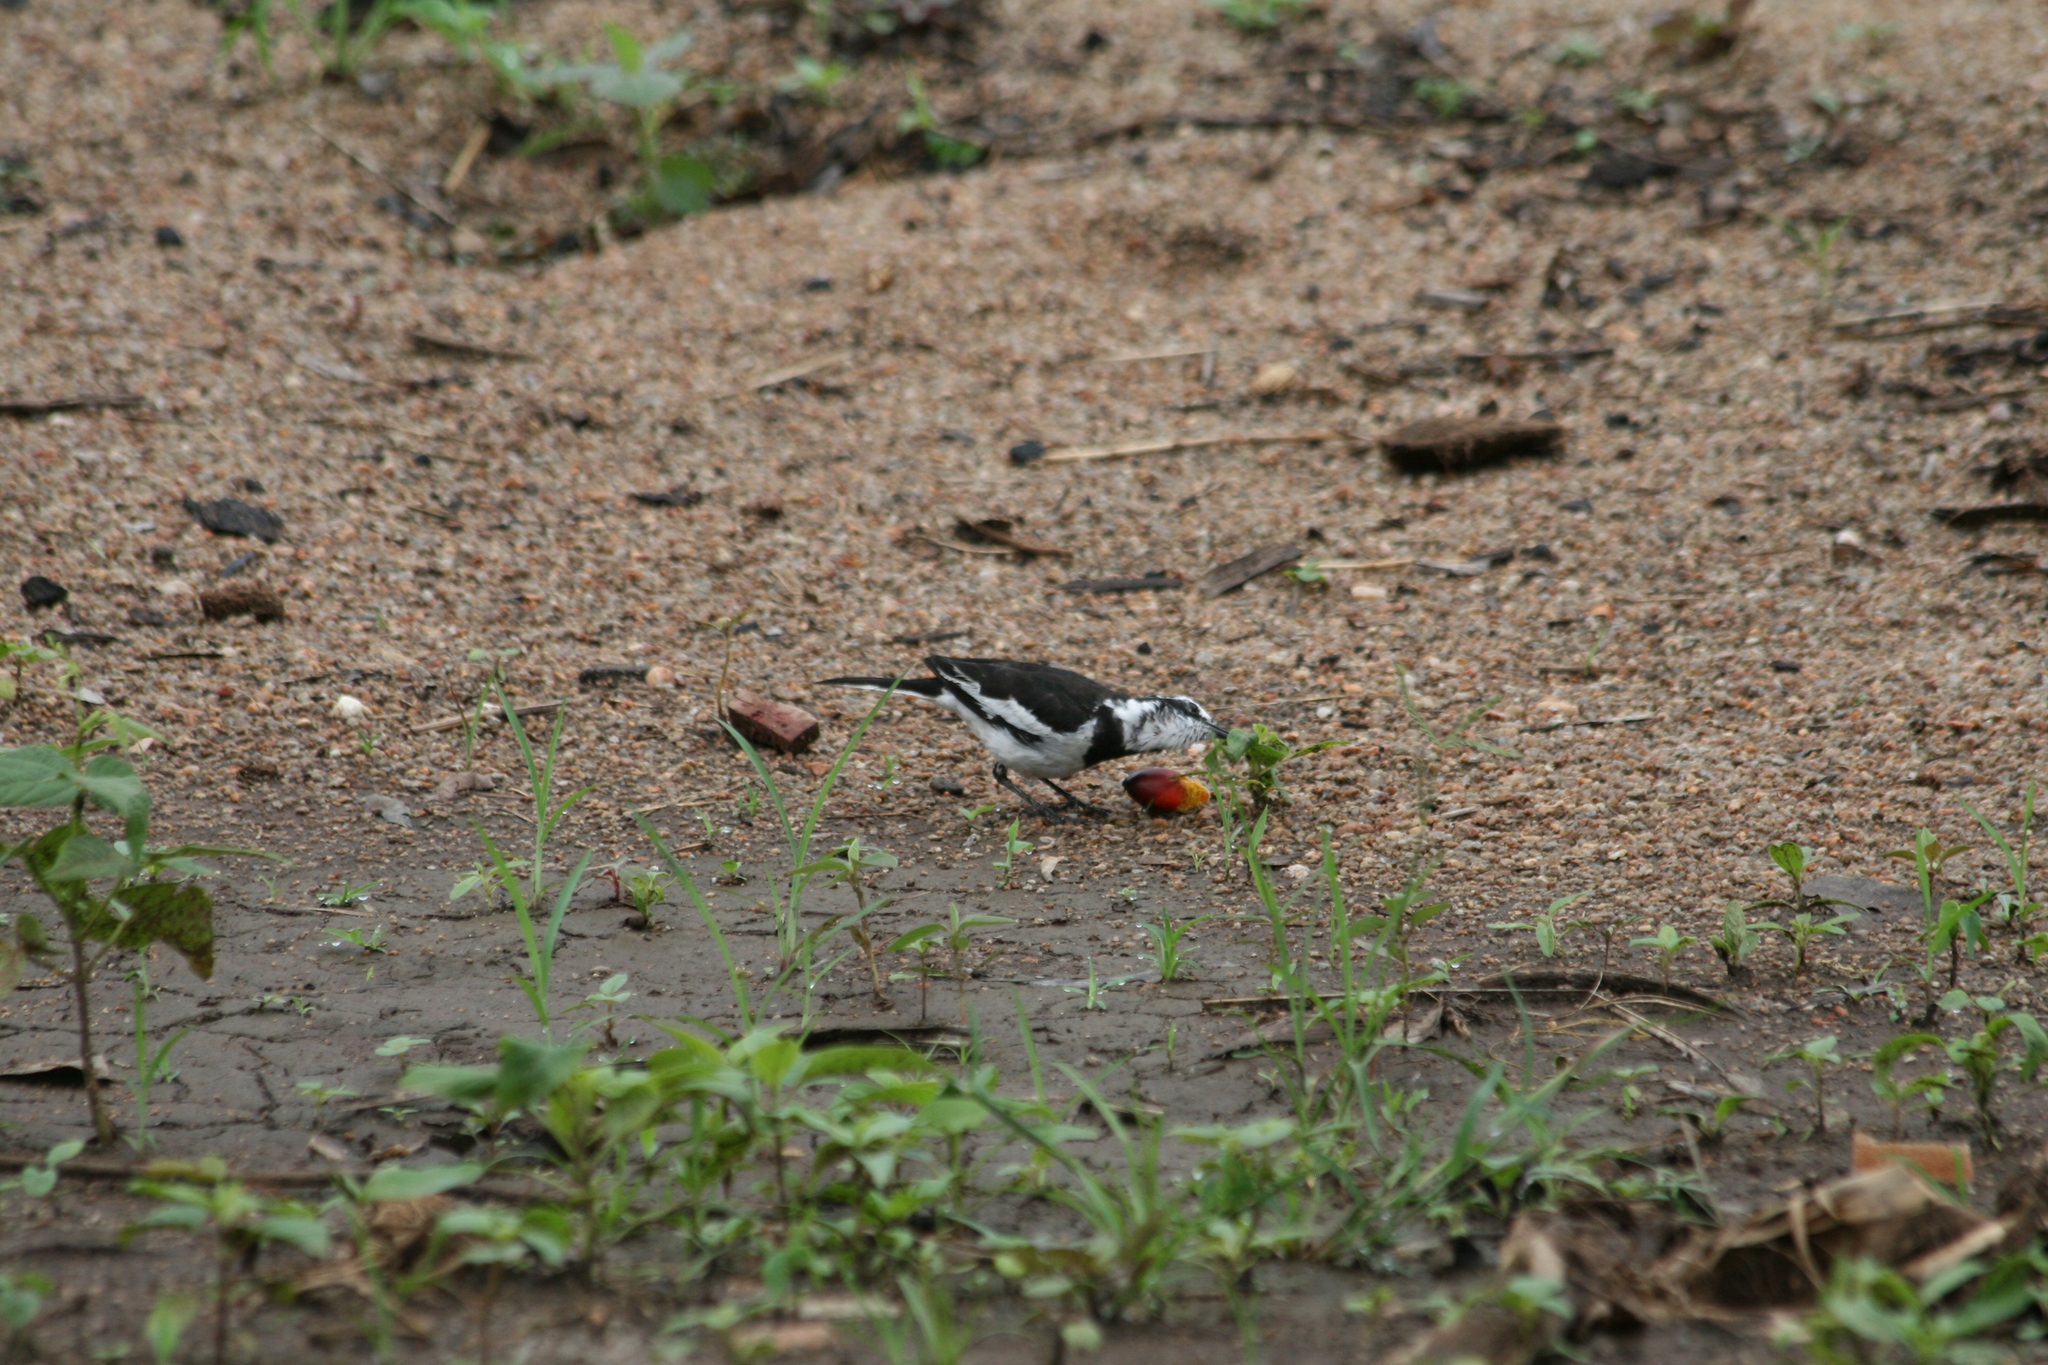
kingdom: Animalia
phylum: Chordata
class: Aves
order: Passeriformes
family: Motacillidae
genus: Motacilla
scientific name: Motacilla aguimp
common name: African pied wagtail
